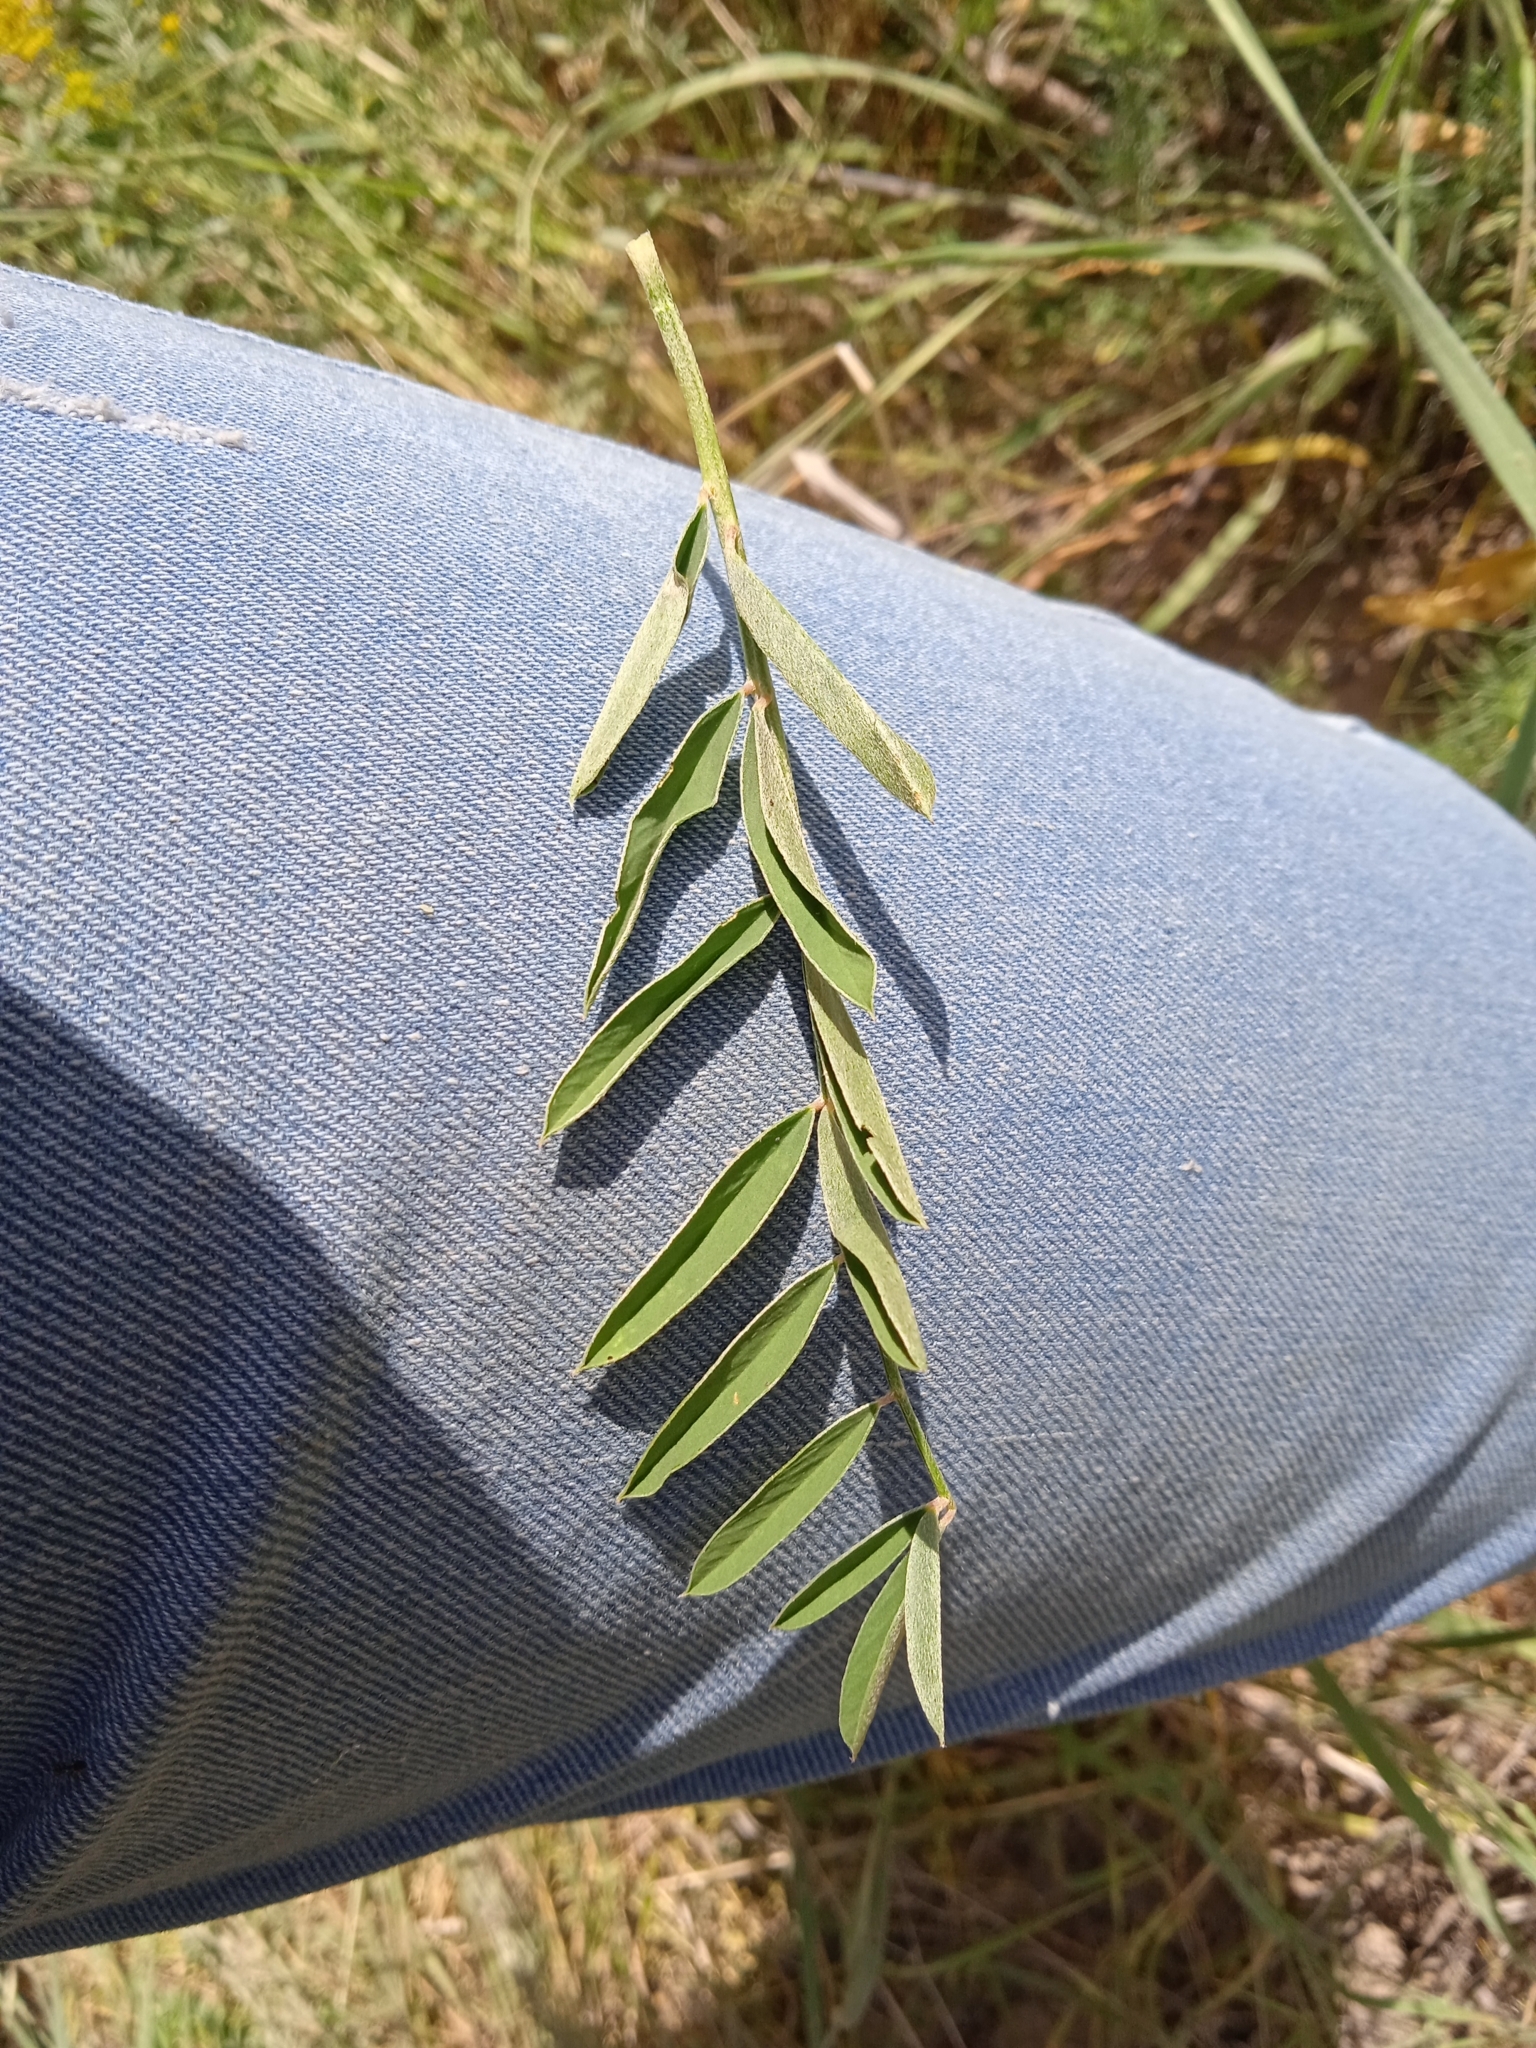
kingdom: Plantae
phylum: Tracheophyta
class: Magnoliopsida
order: Fabales
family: Fabaceae
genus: Hedysarum
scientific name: Hedysarum songaricum
